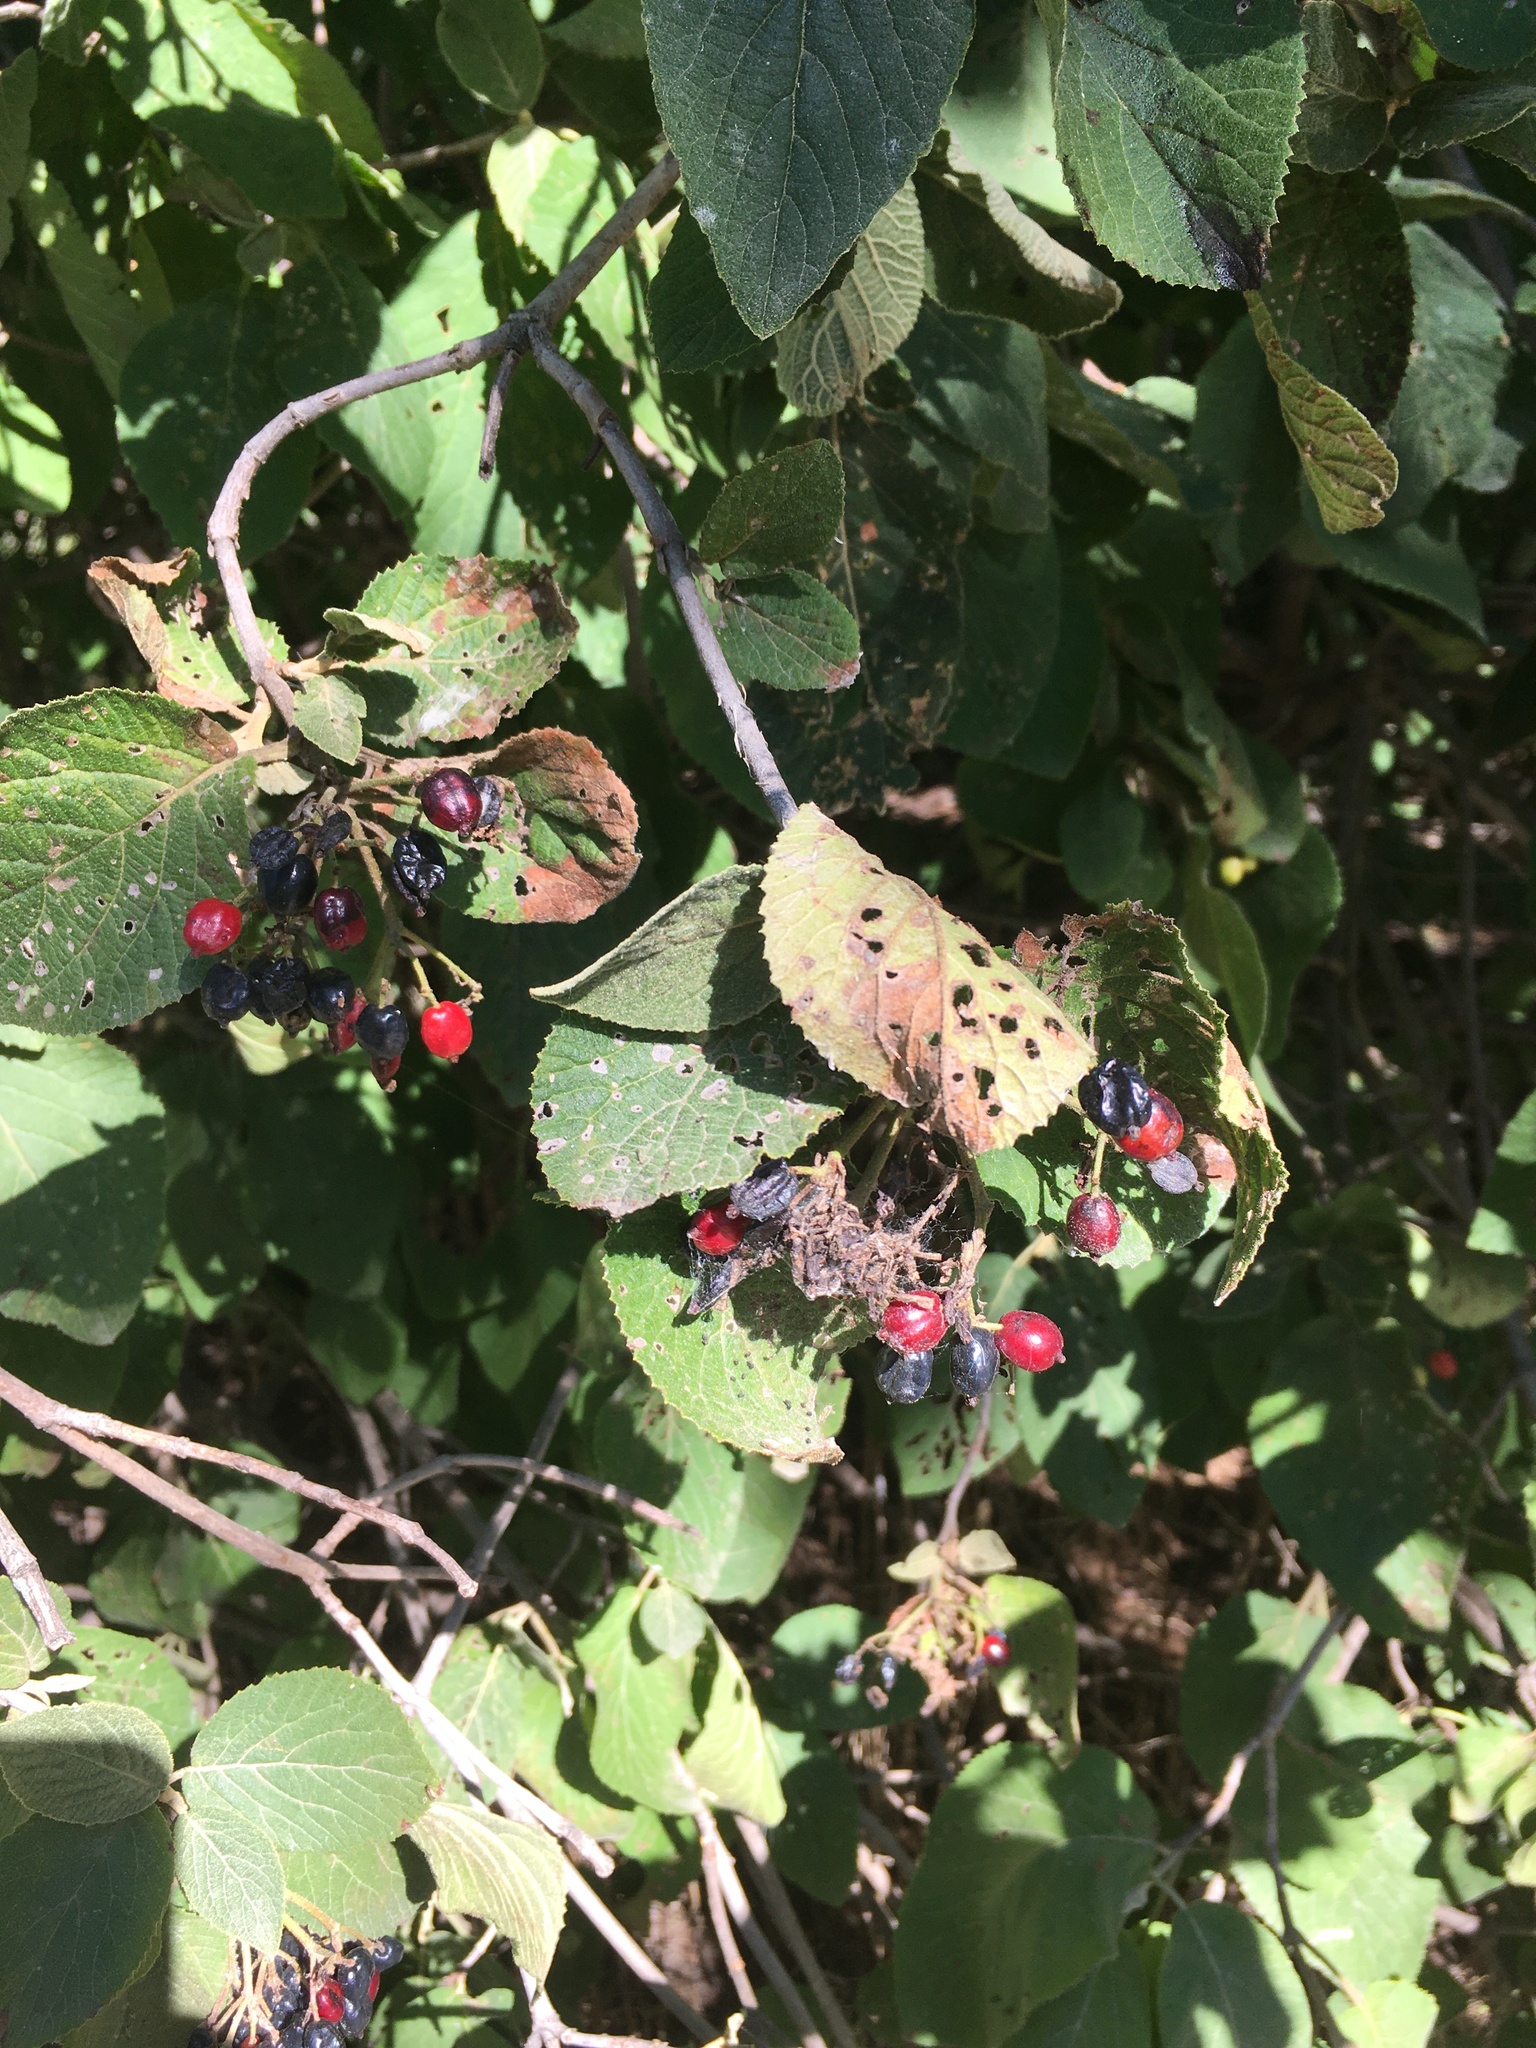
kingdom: Plantae
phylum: Tracheophyta
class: Magnoliopsida
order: Dipsacales
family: Viburnaceae
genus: Viburnum
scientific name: Viburnum lantana
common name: Wayfaring tree
